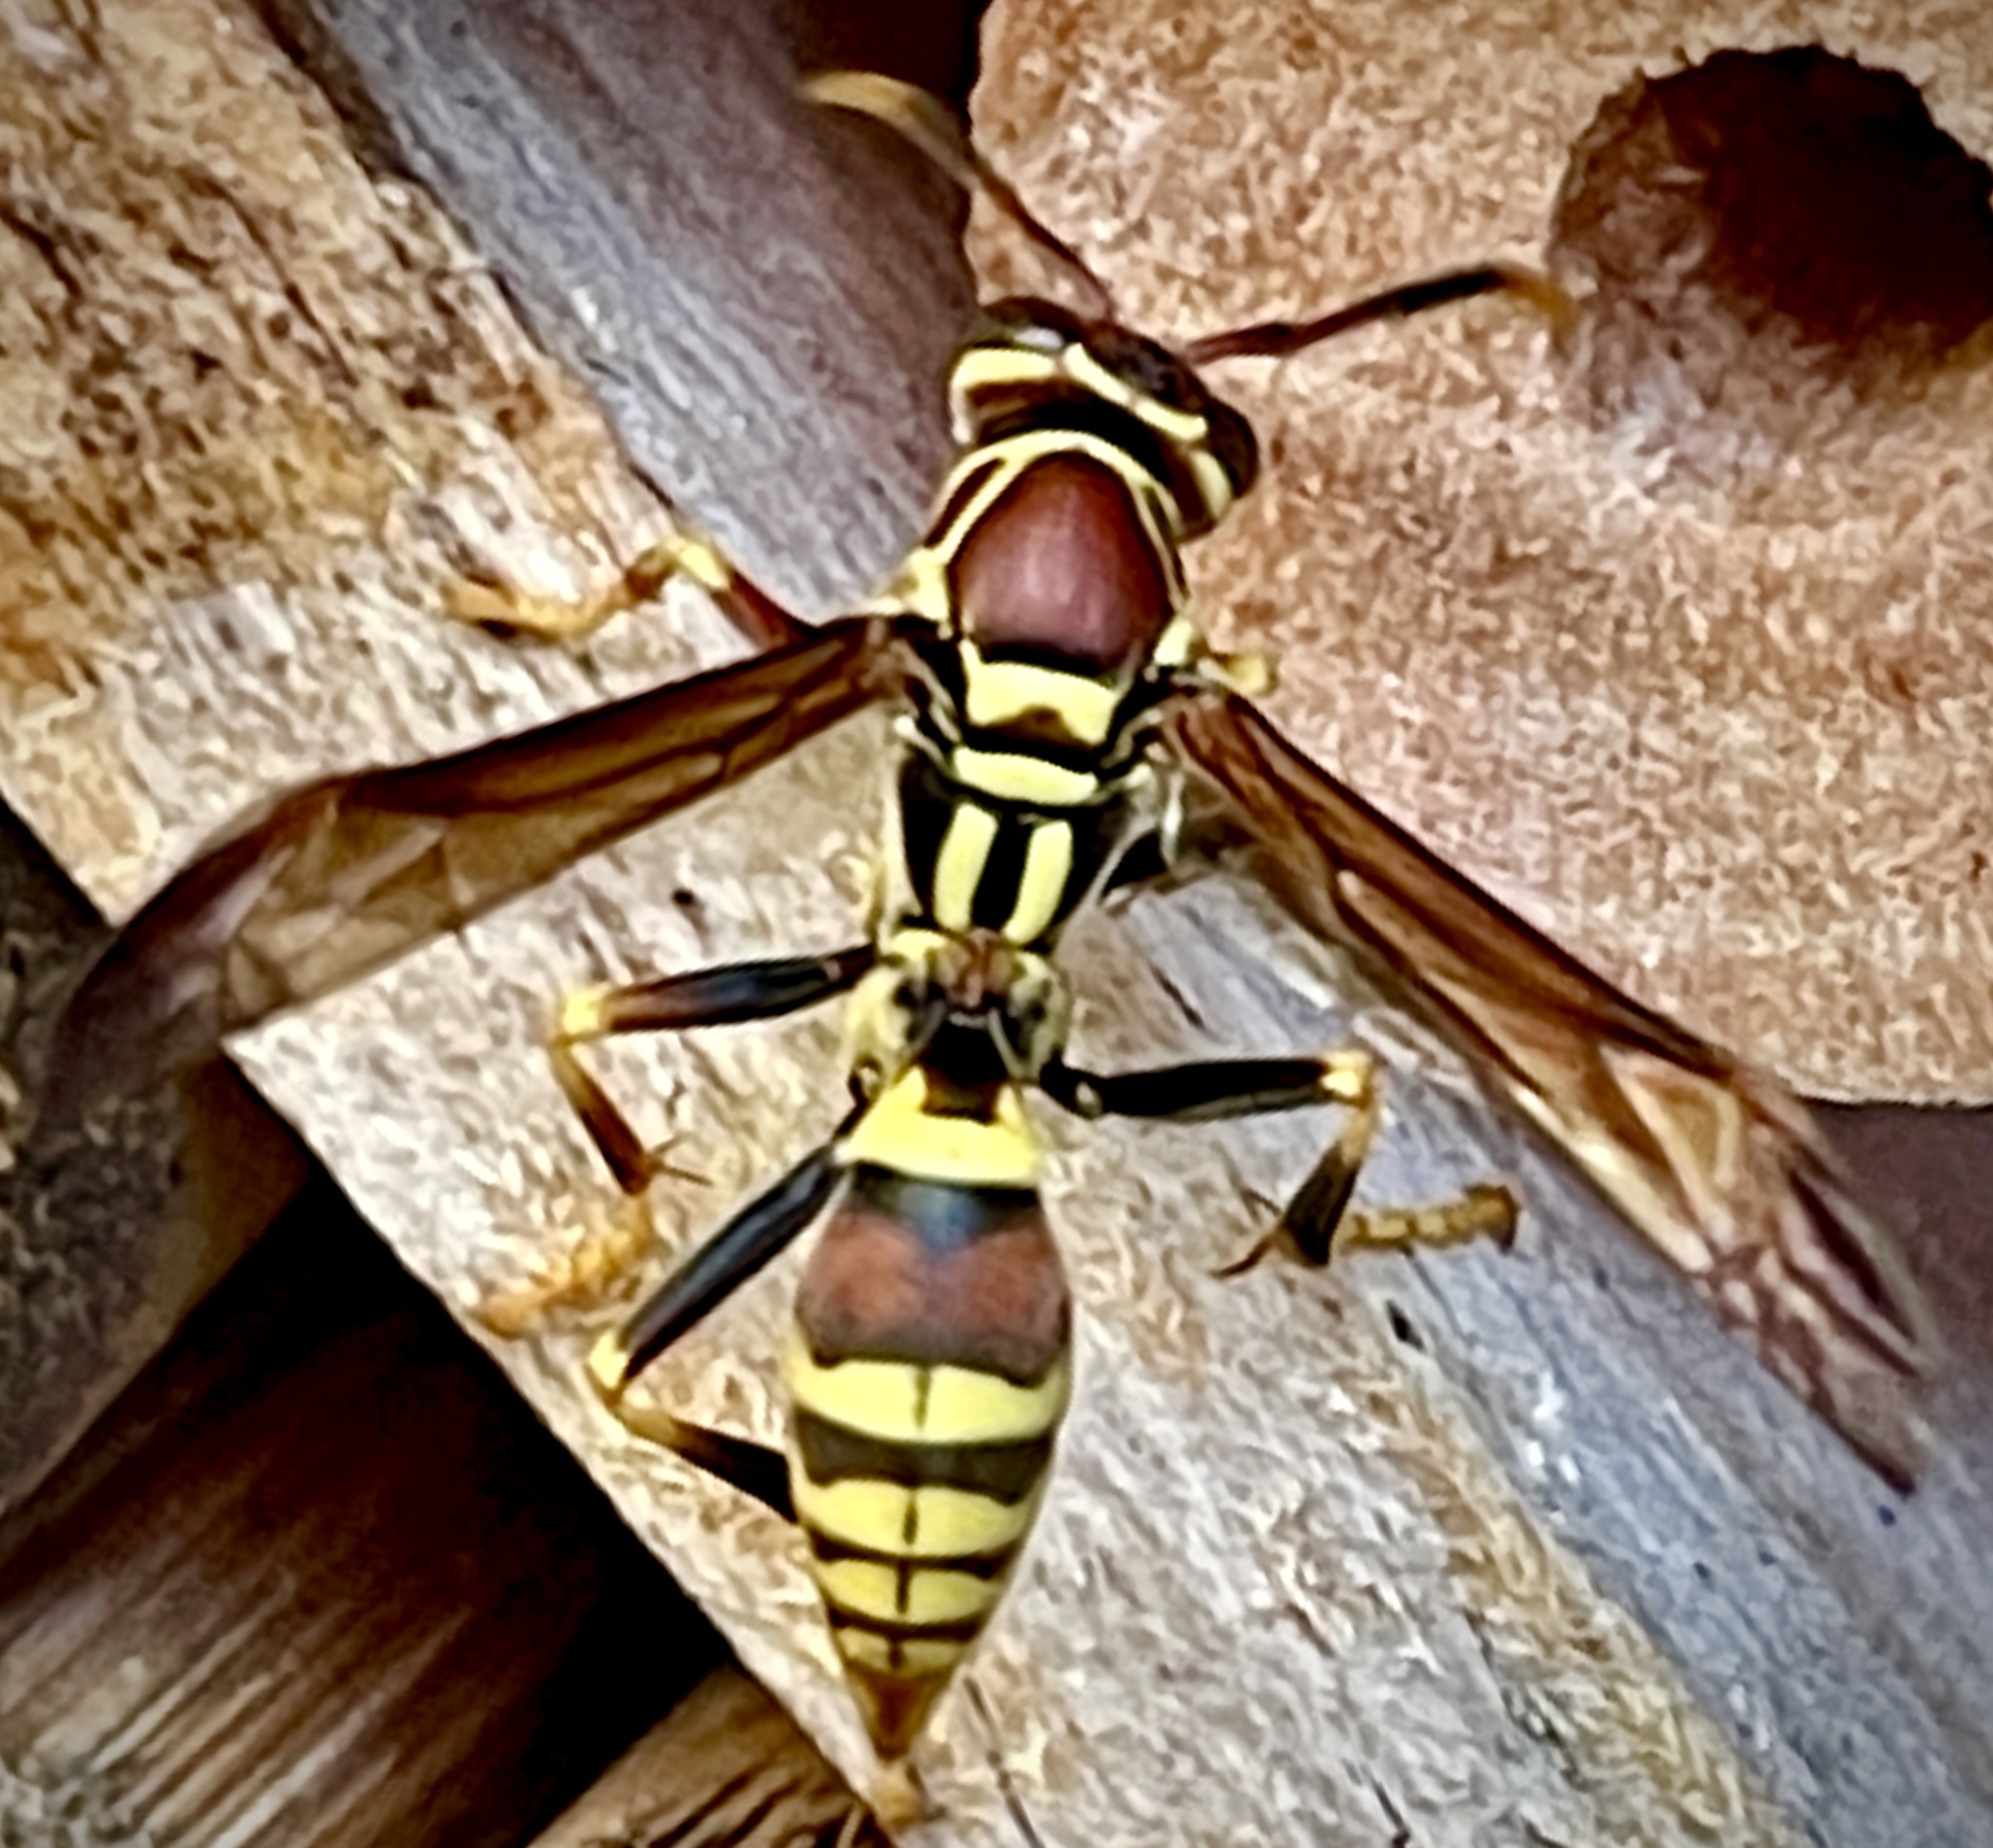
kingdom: Animalia
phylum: Arthropoda
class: Insecta
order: Hymenoptera
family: Eumenidae
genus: Polistes
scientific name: Polistes exclamans
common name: Paper wasp
